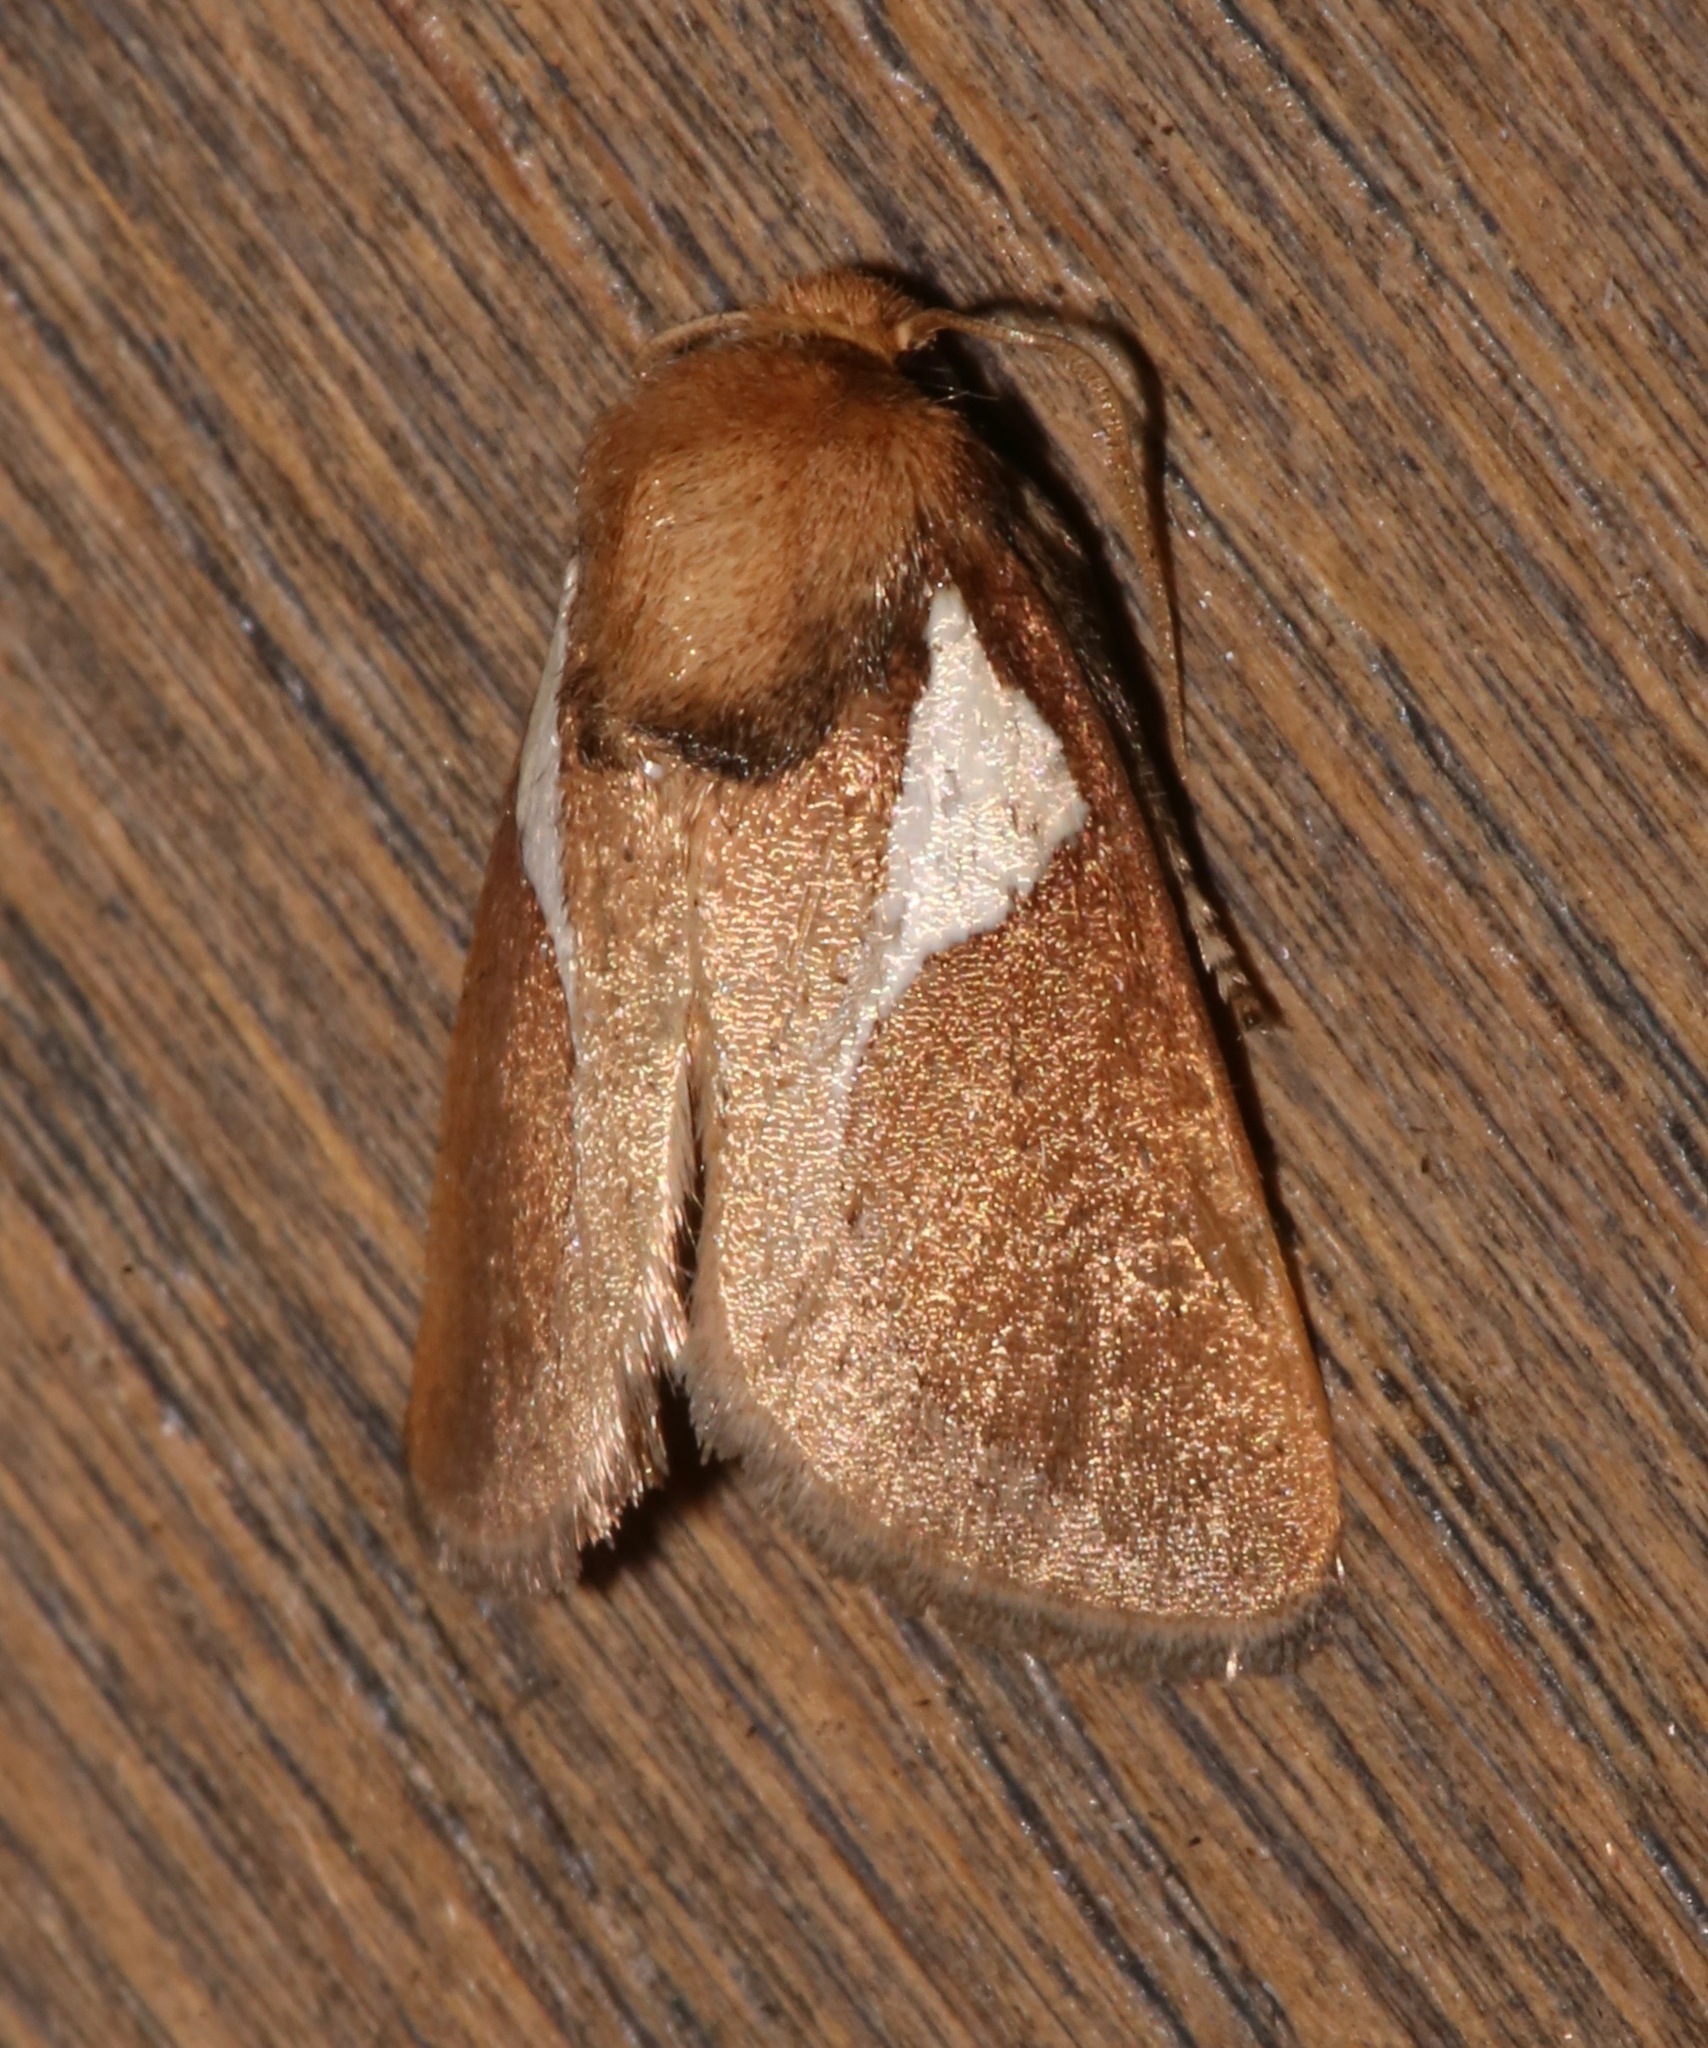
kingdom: Animalia
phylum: Arthropoda
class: Insecta
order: Lepidoptera
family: Limacodidae
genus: Prolimacodes
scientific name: Prolimacodes trigona
